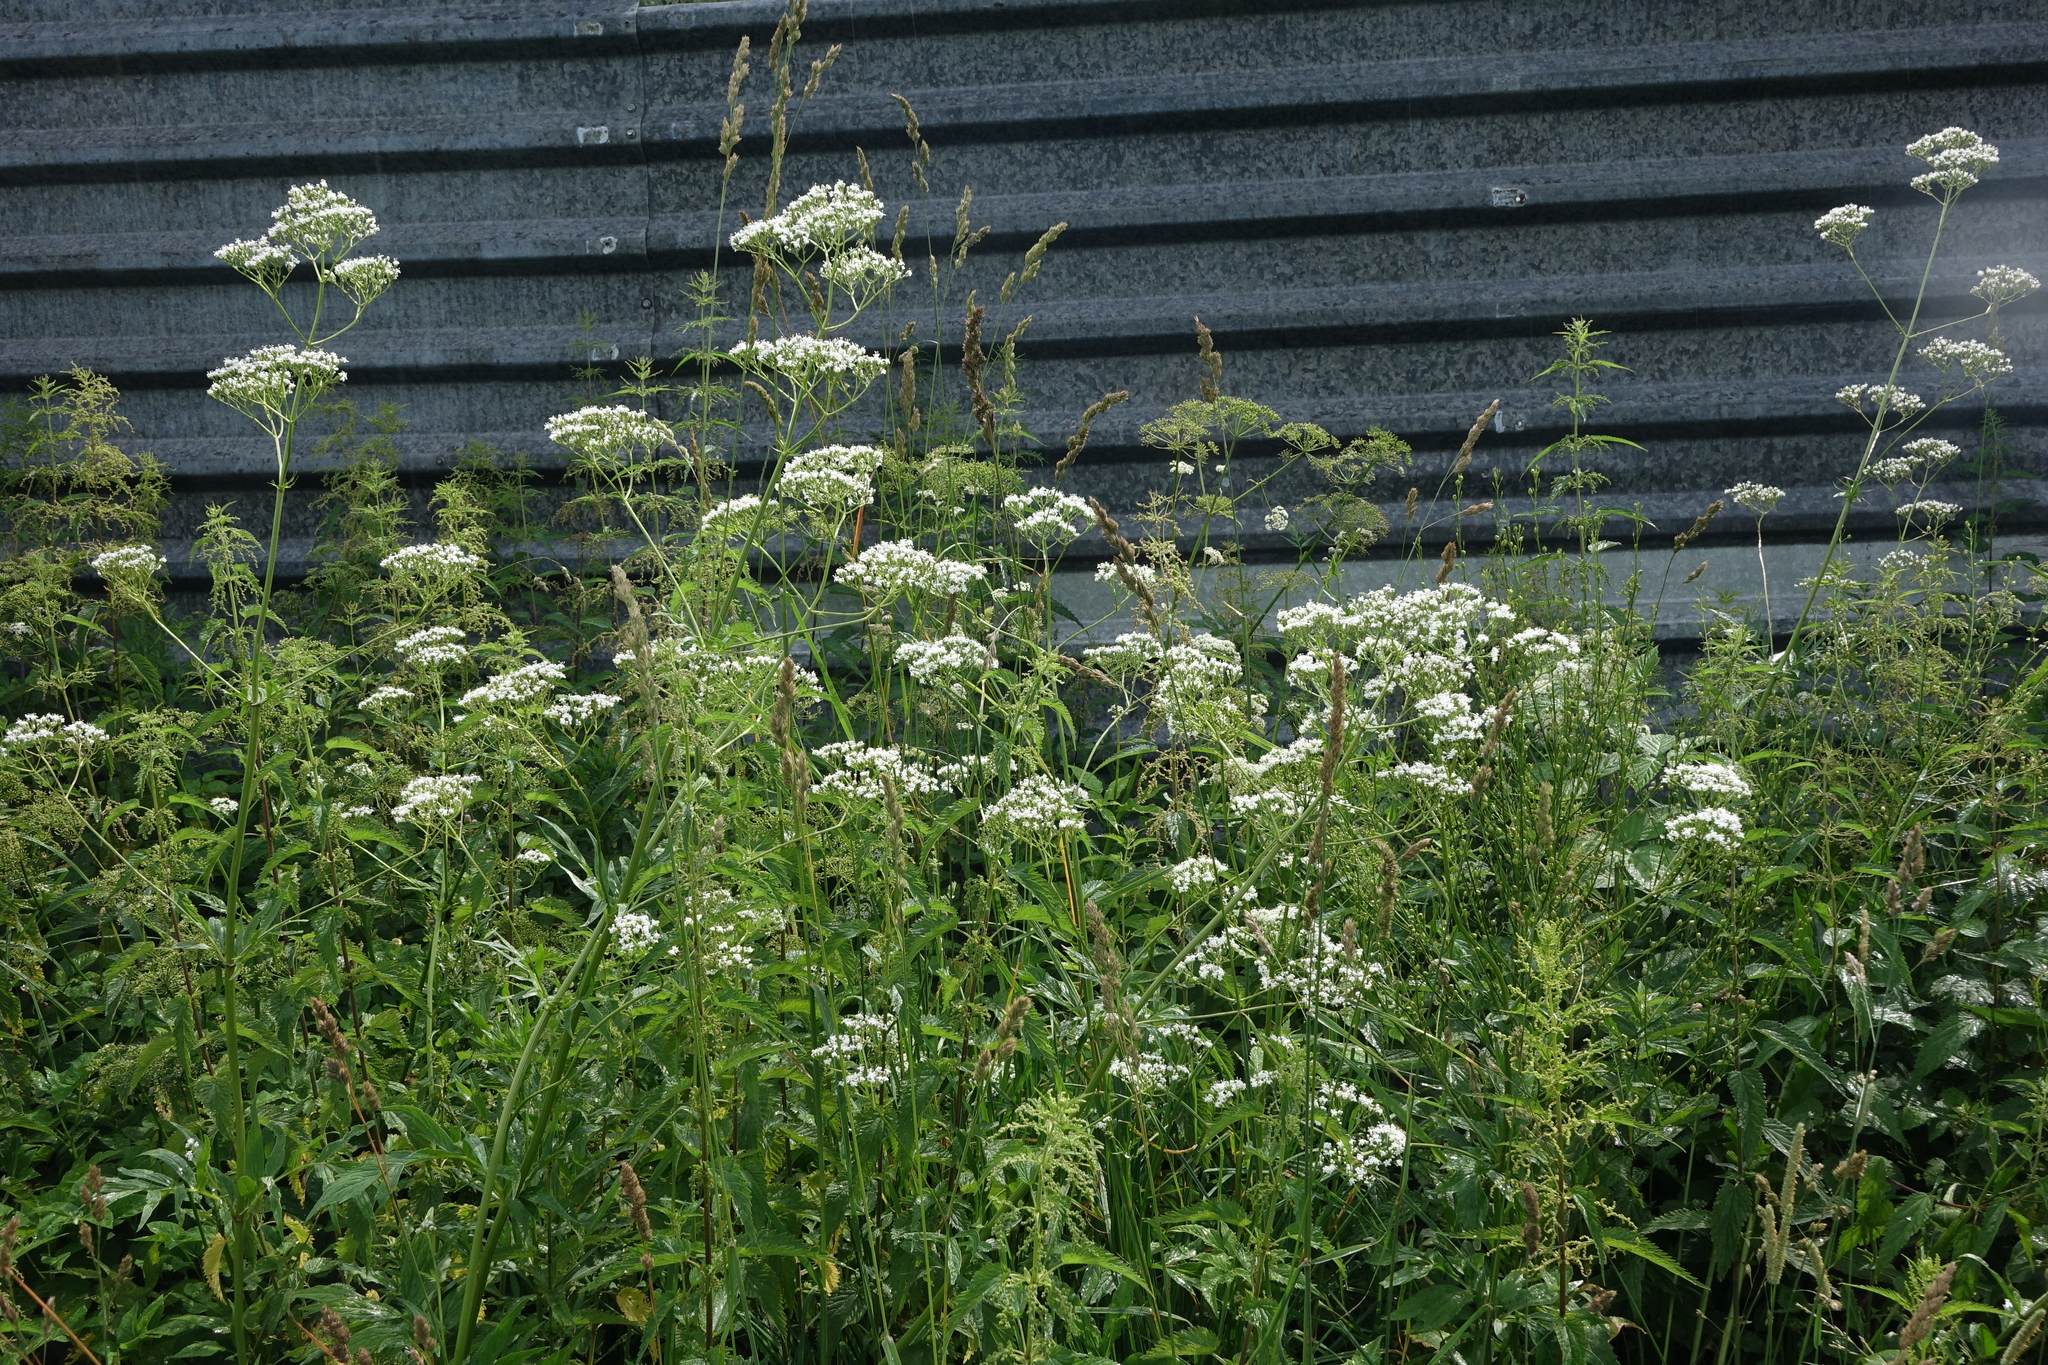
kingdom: Plantae
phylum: Tracheophyta
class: Magnoliopsida
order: Dipsacales
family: Caprifoliaceae
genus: Valeriana
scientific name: Valeriana officinalis
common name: Common valerian
